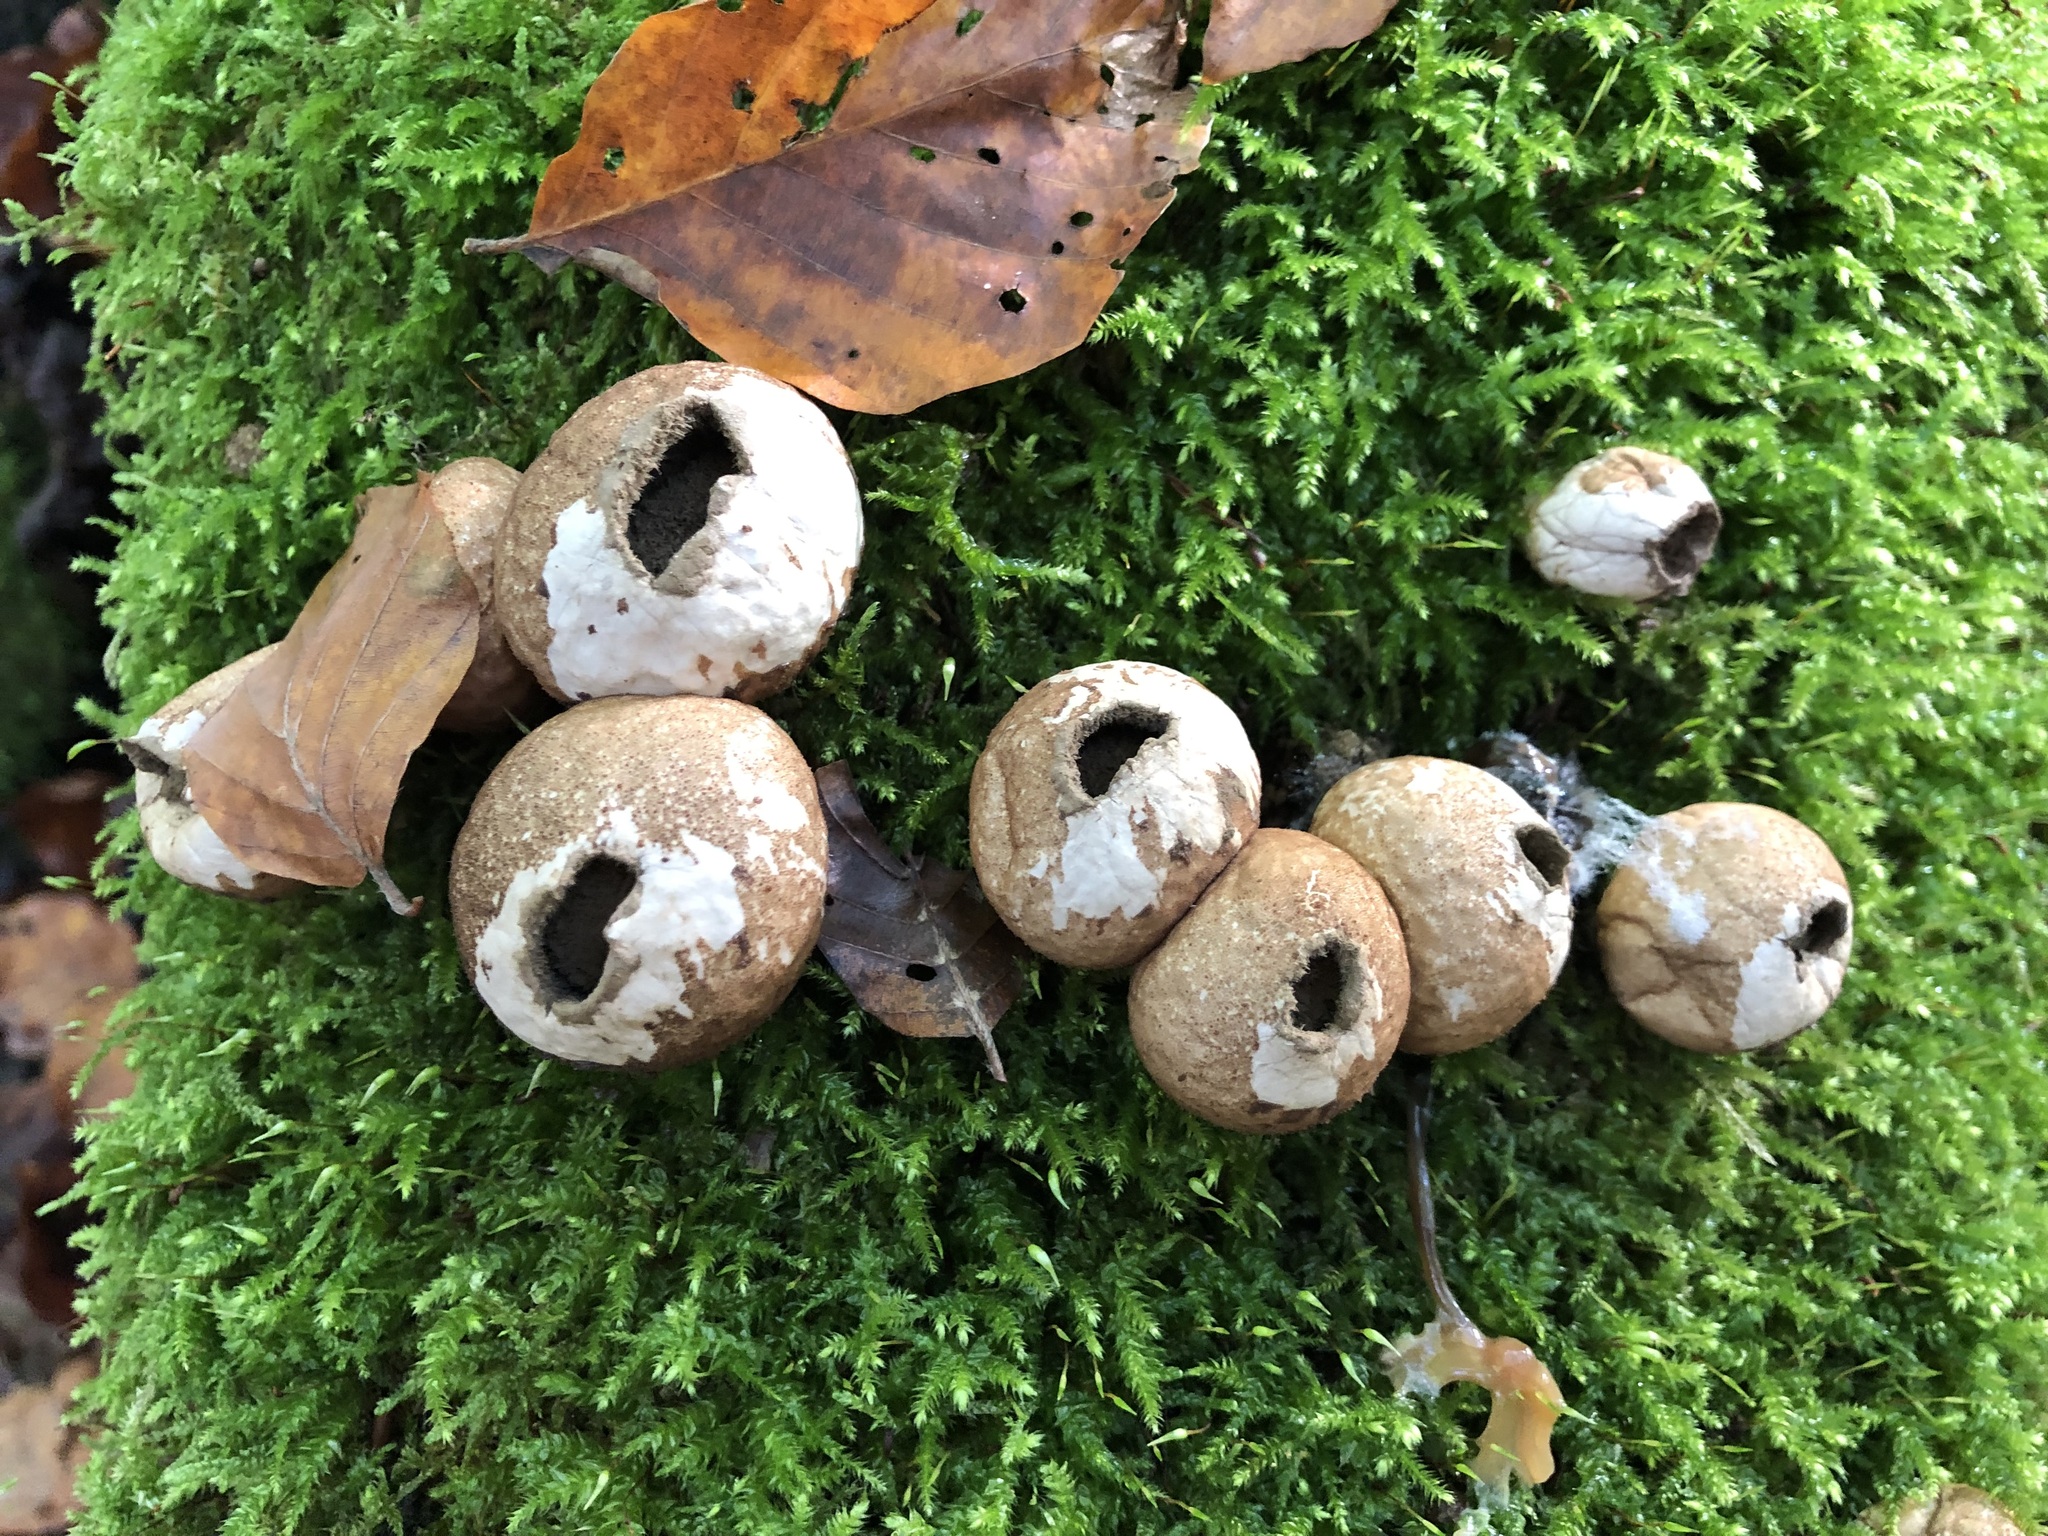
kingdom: Fungi
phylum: Basidiomycota
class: Agaricomycetes
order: Agaricales
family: Lycoperdaceae
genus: Apioperdon
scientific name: Apioperdon pyriforme
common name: Pear-shaped puffball
